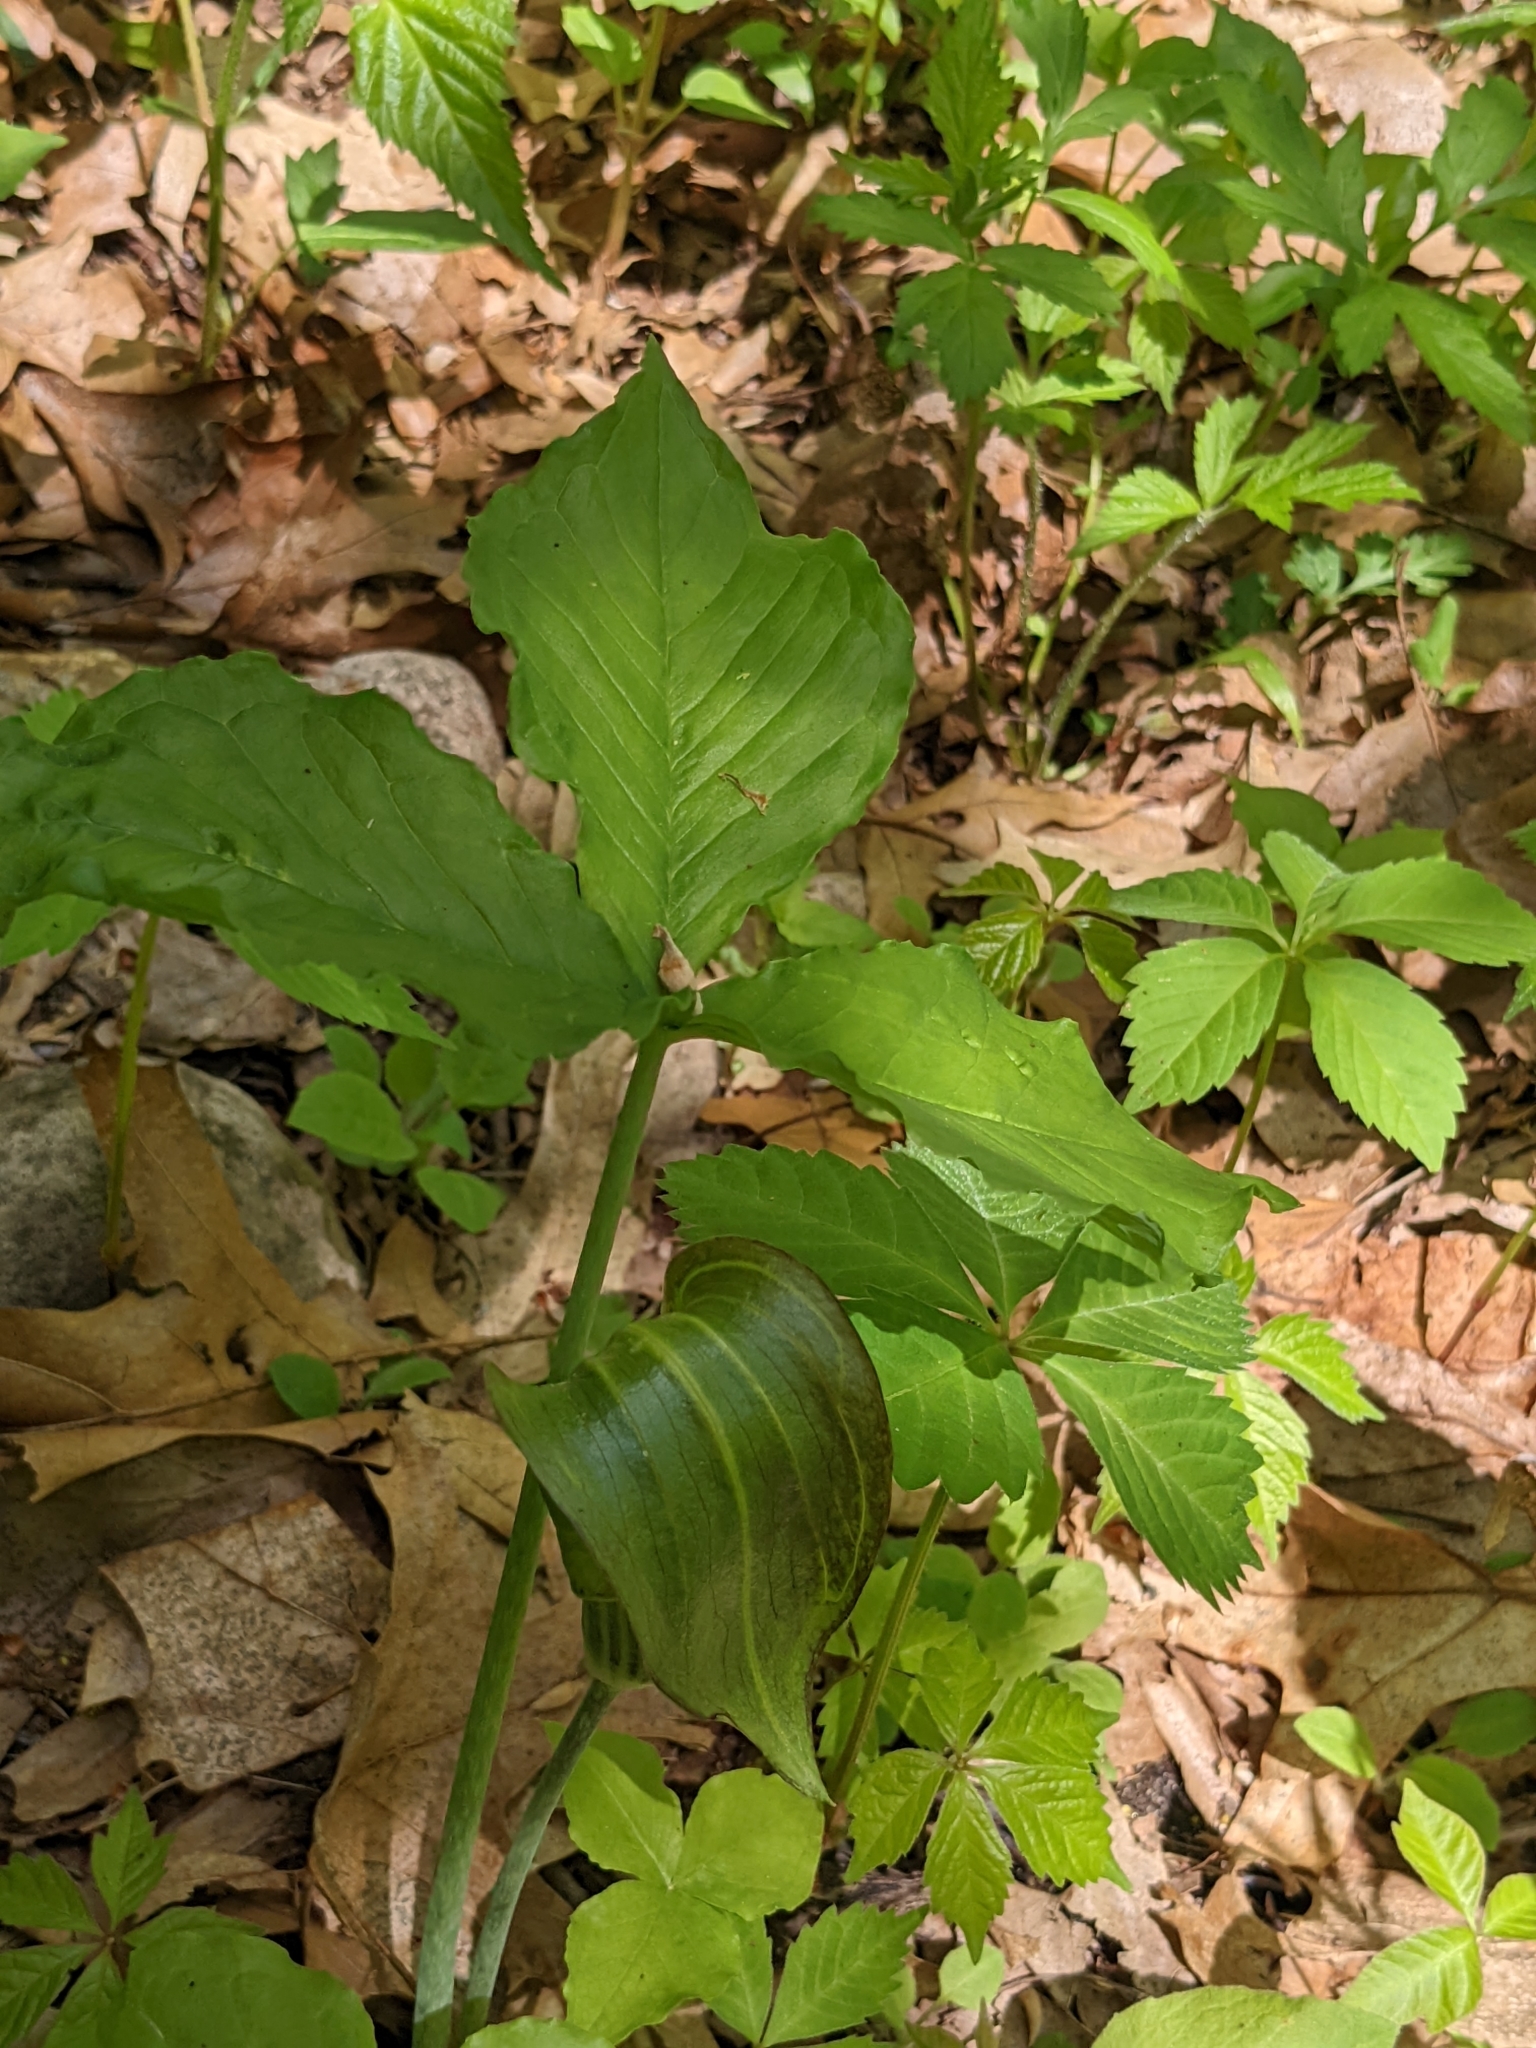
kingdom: Plantae
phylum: Tracheophyta
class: Liliopsida
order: Alismatales
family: Araceae
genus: Arisaema
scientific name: Arisaema triphyllum
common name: Jack-in-the-pulpit
